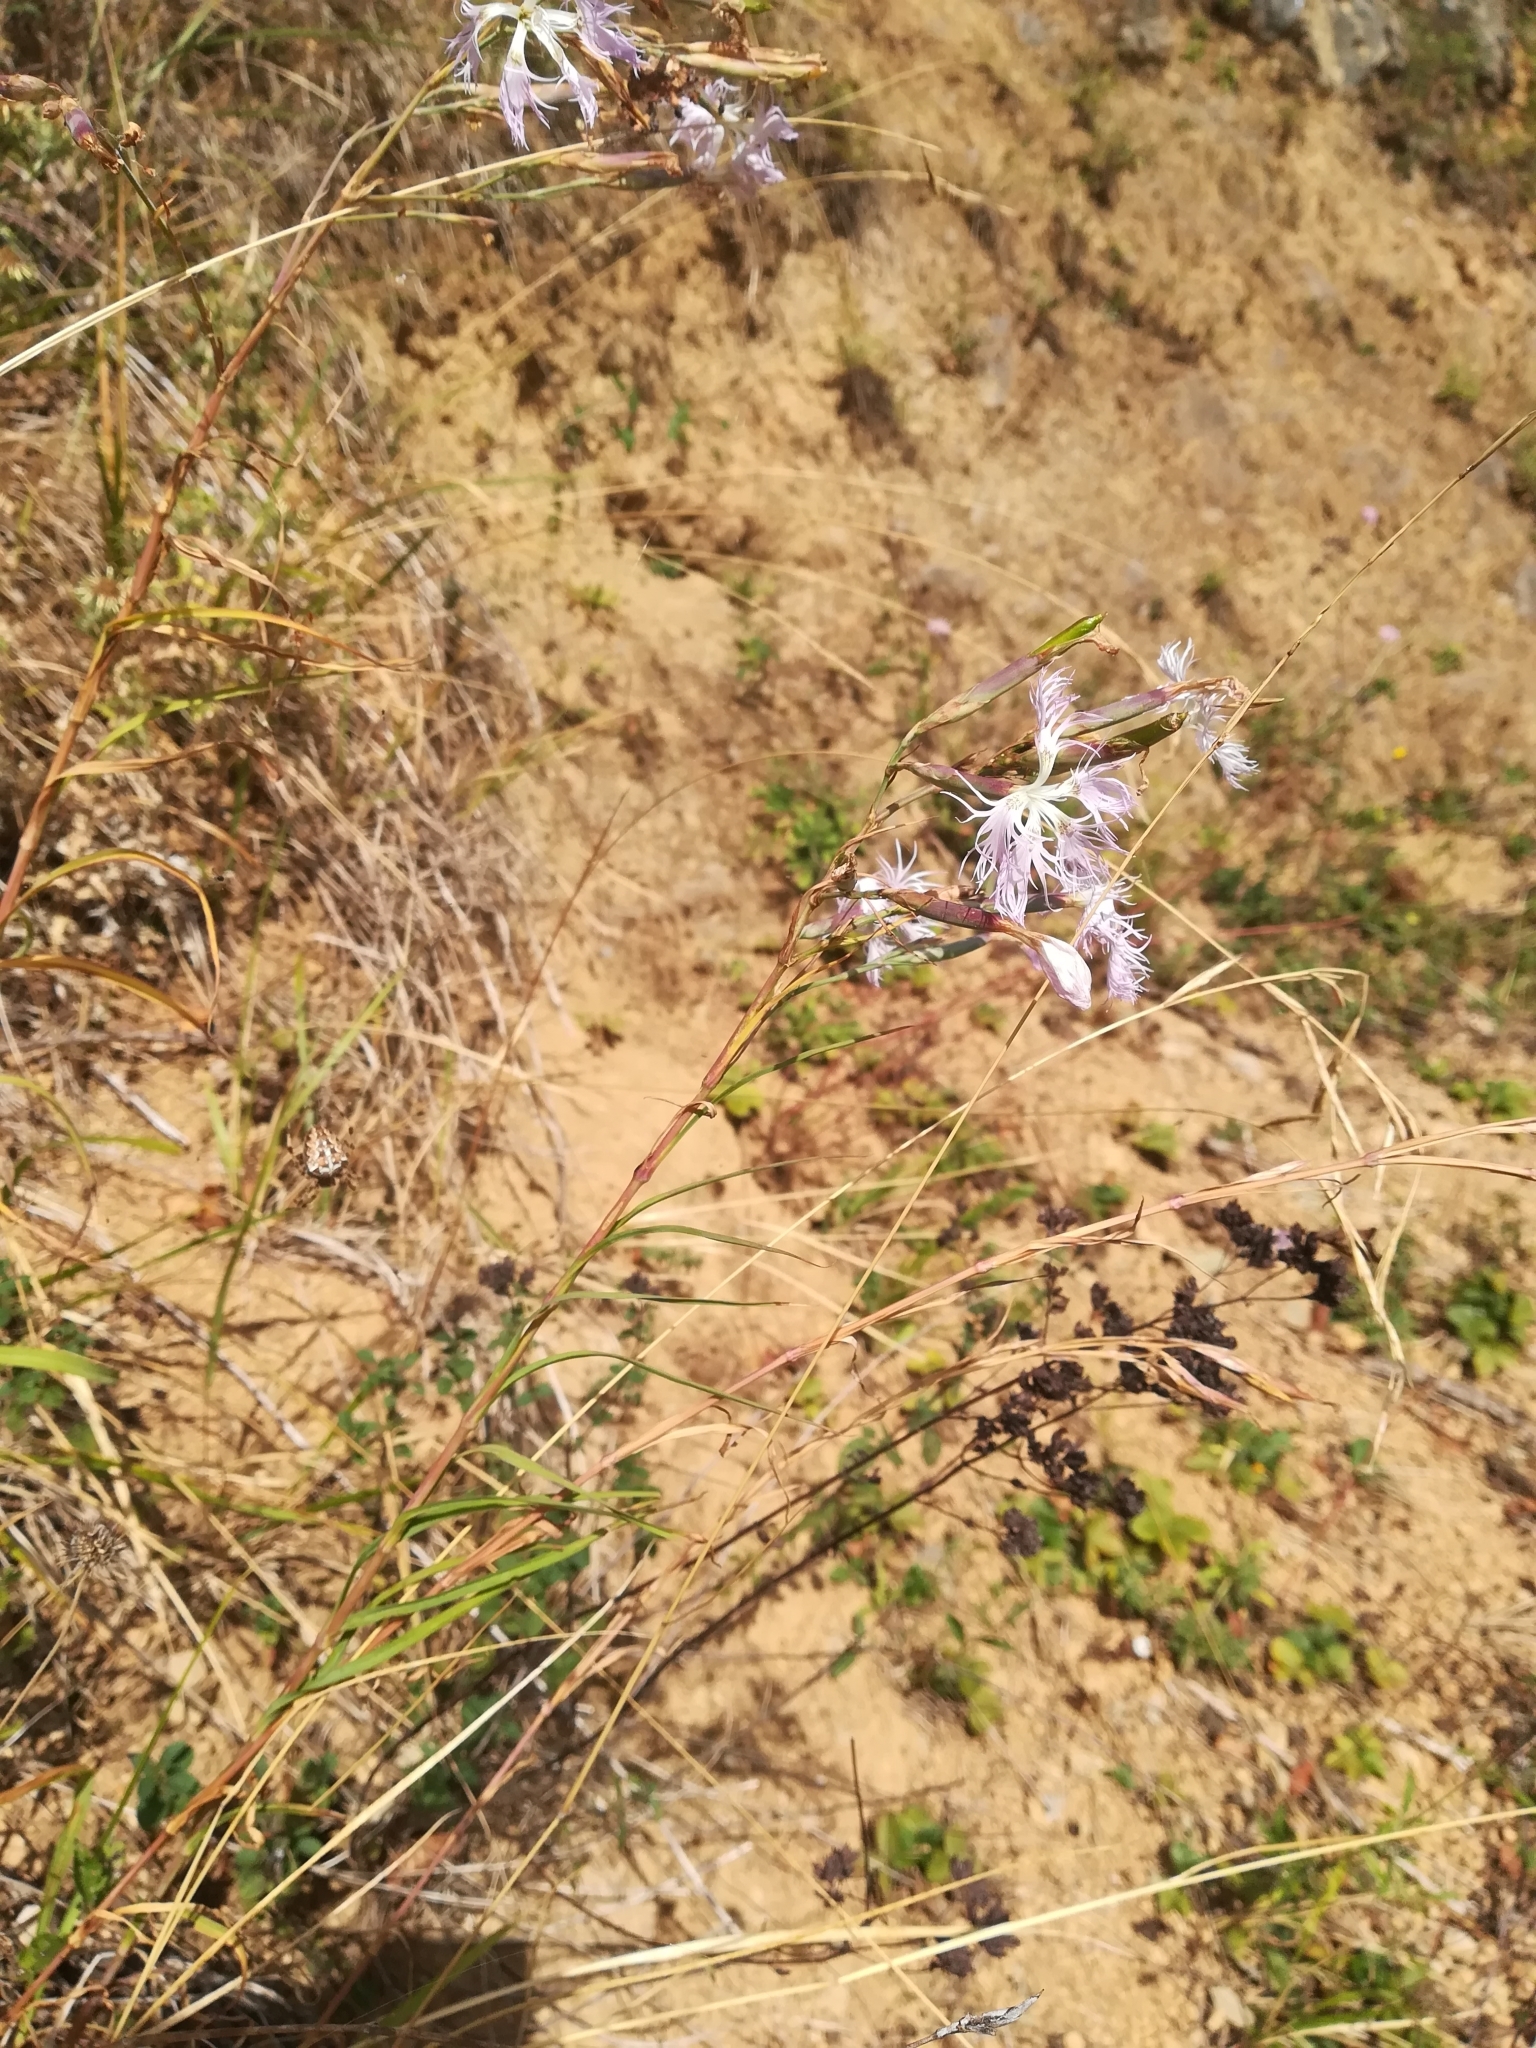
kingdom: Plantae
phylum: Tracheophyta
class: Magnoliopsida
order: Caryophyllales
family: Caryophyllaceae
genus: Dianthus
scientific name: Dianthus superbus
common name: Fringed pink
